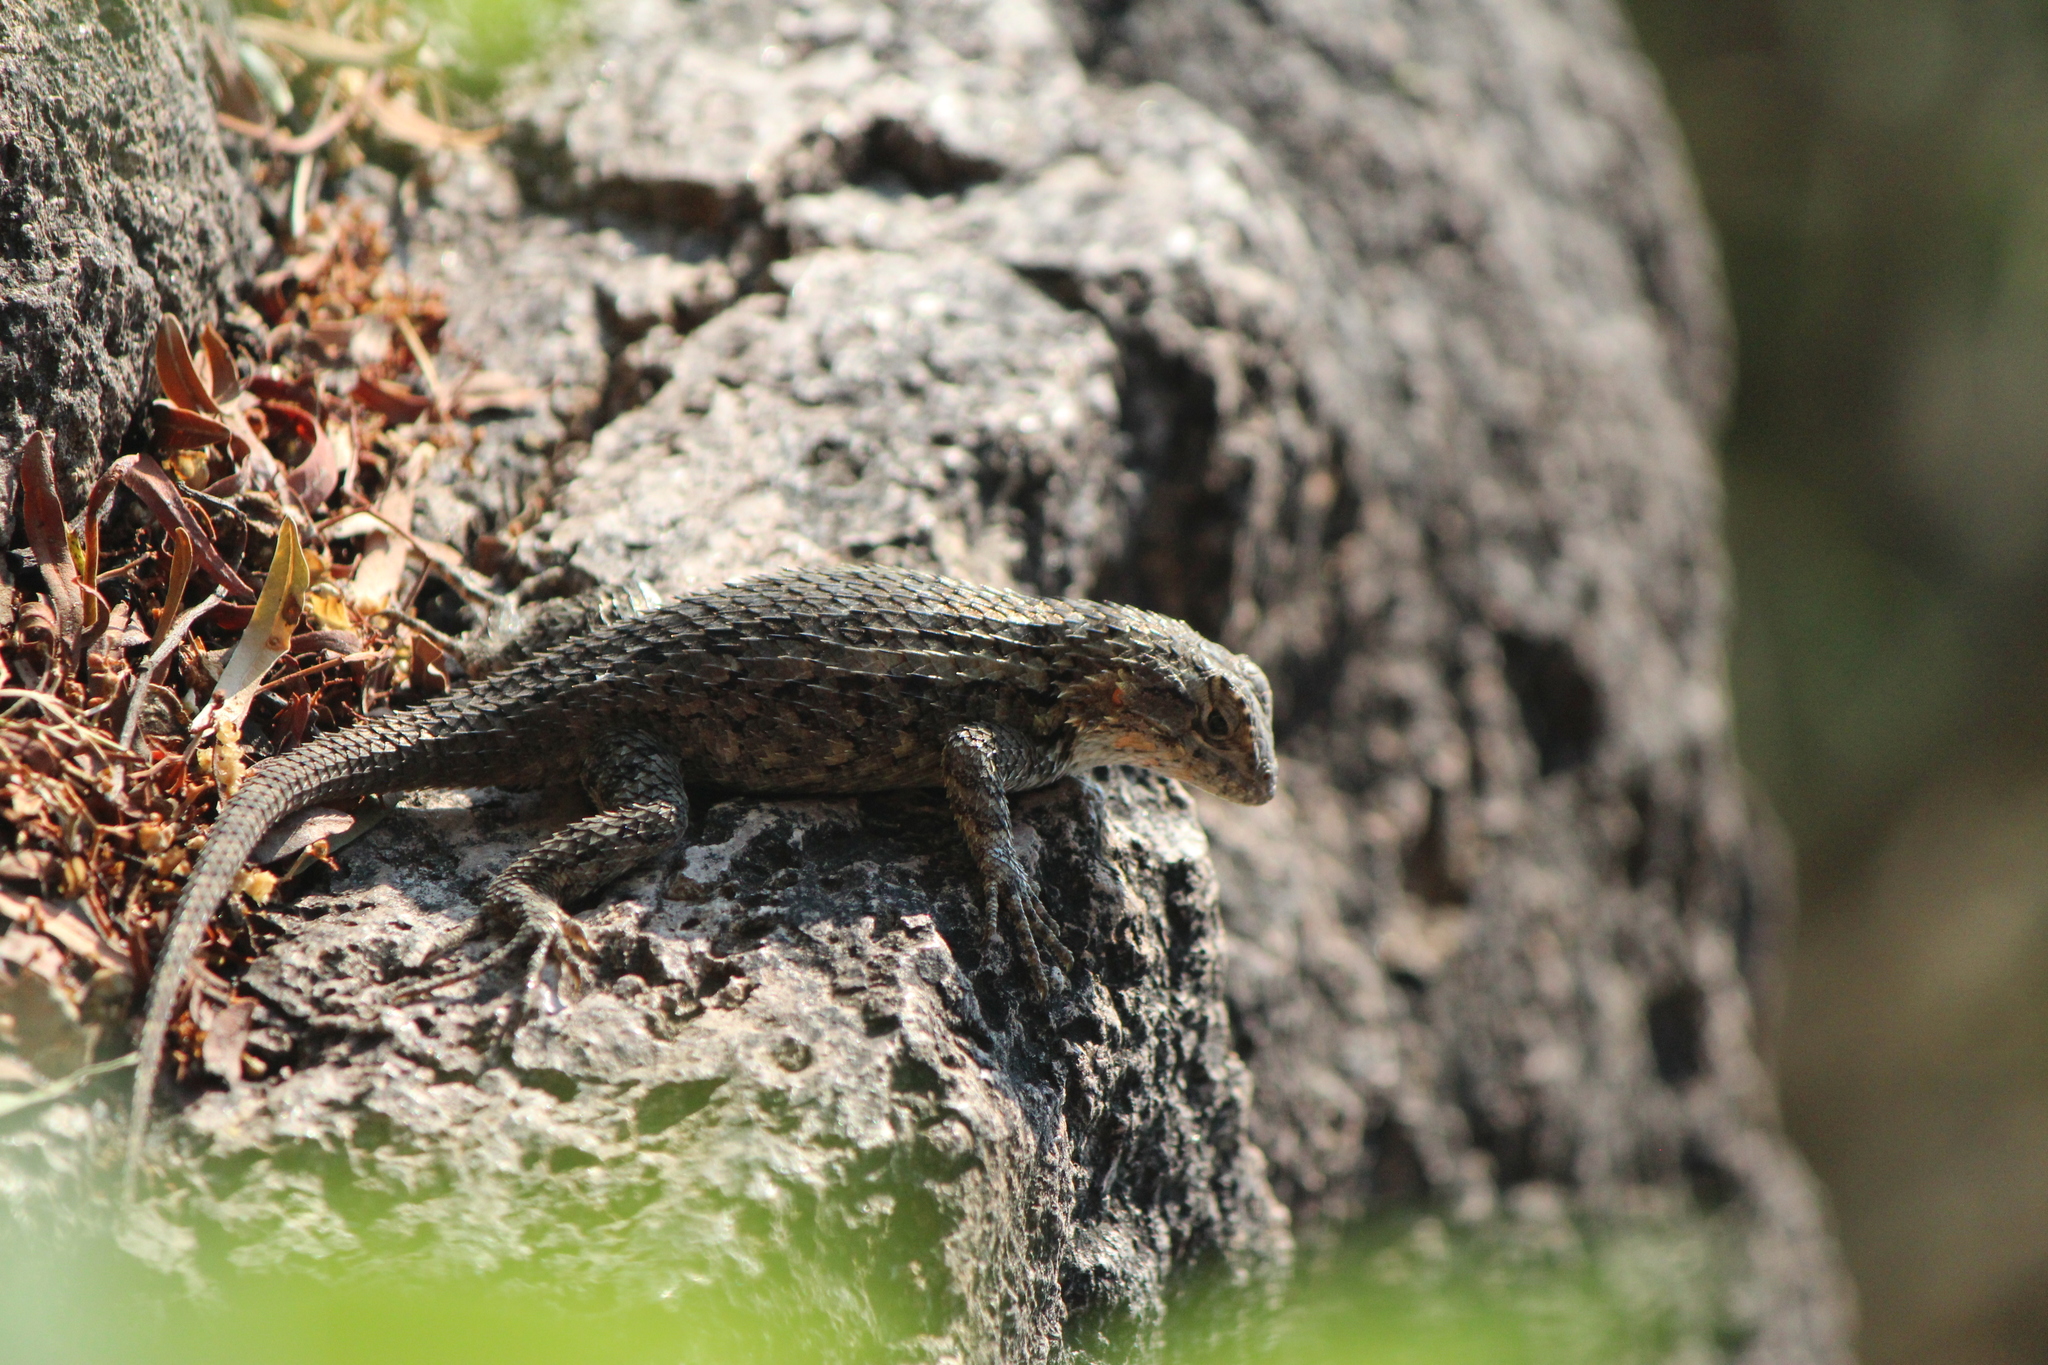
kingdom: Animalia
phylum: Chordata
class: Squamata
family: Phrynosomatidae
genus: Sceloporus
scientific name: Sceloporus spinosus
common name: Blue-spotted spiny lizard [caeruleopunctatus]
